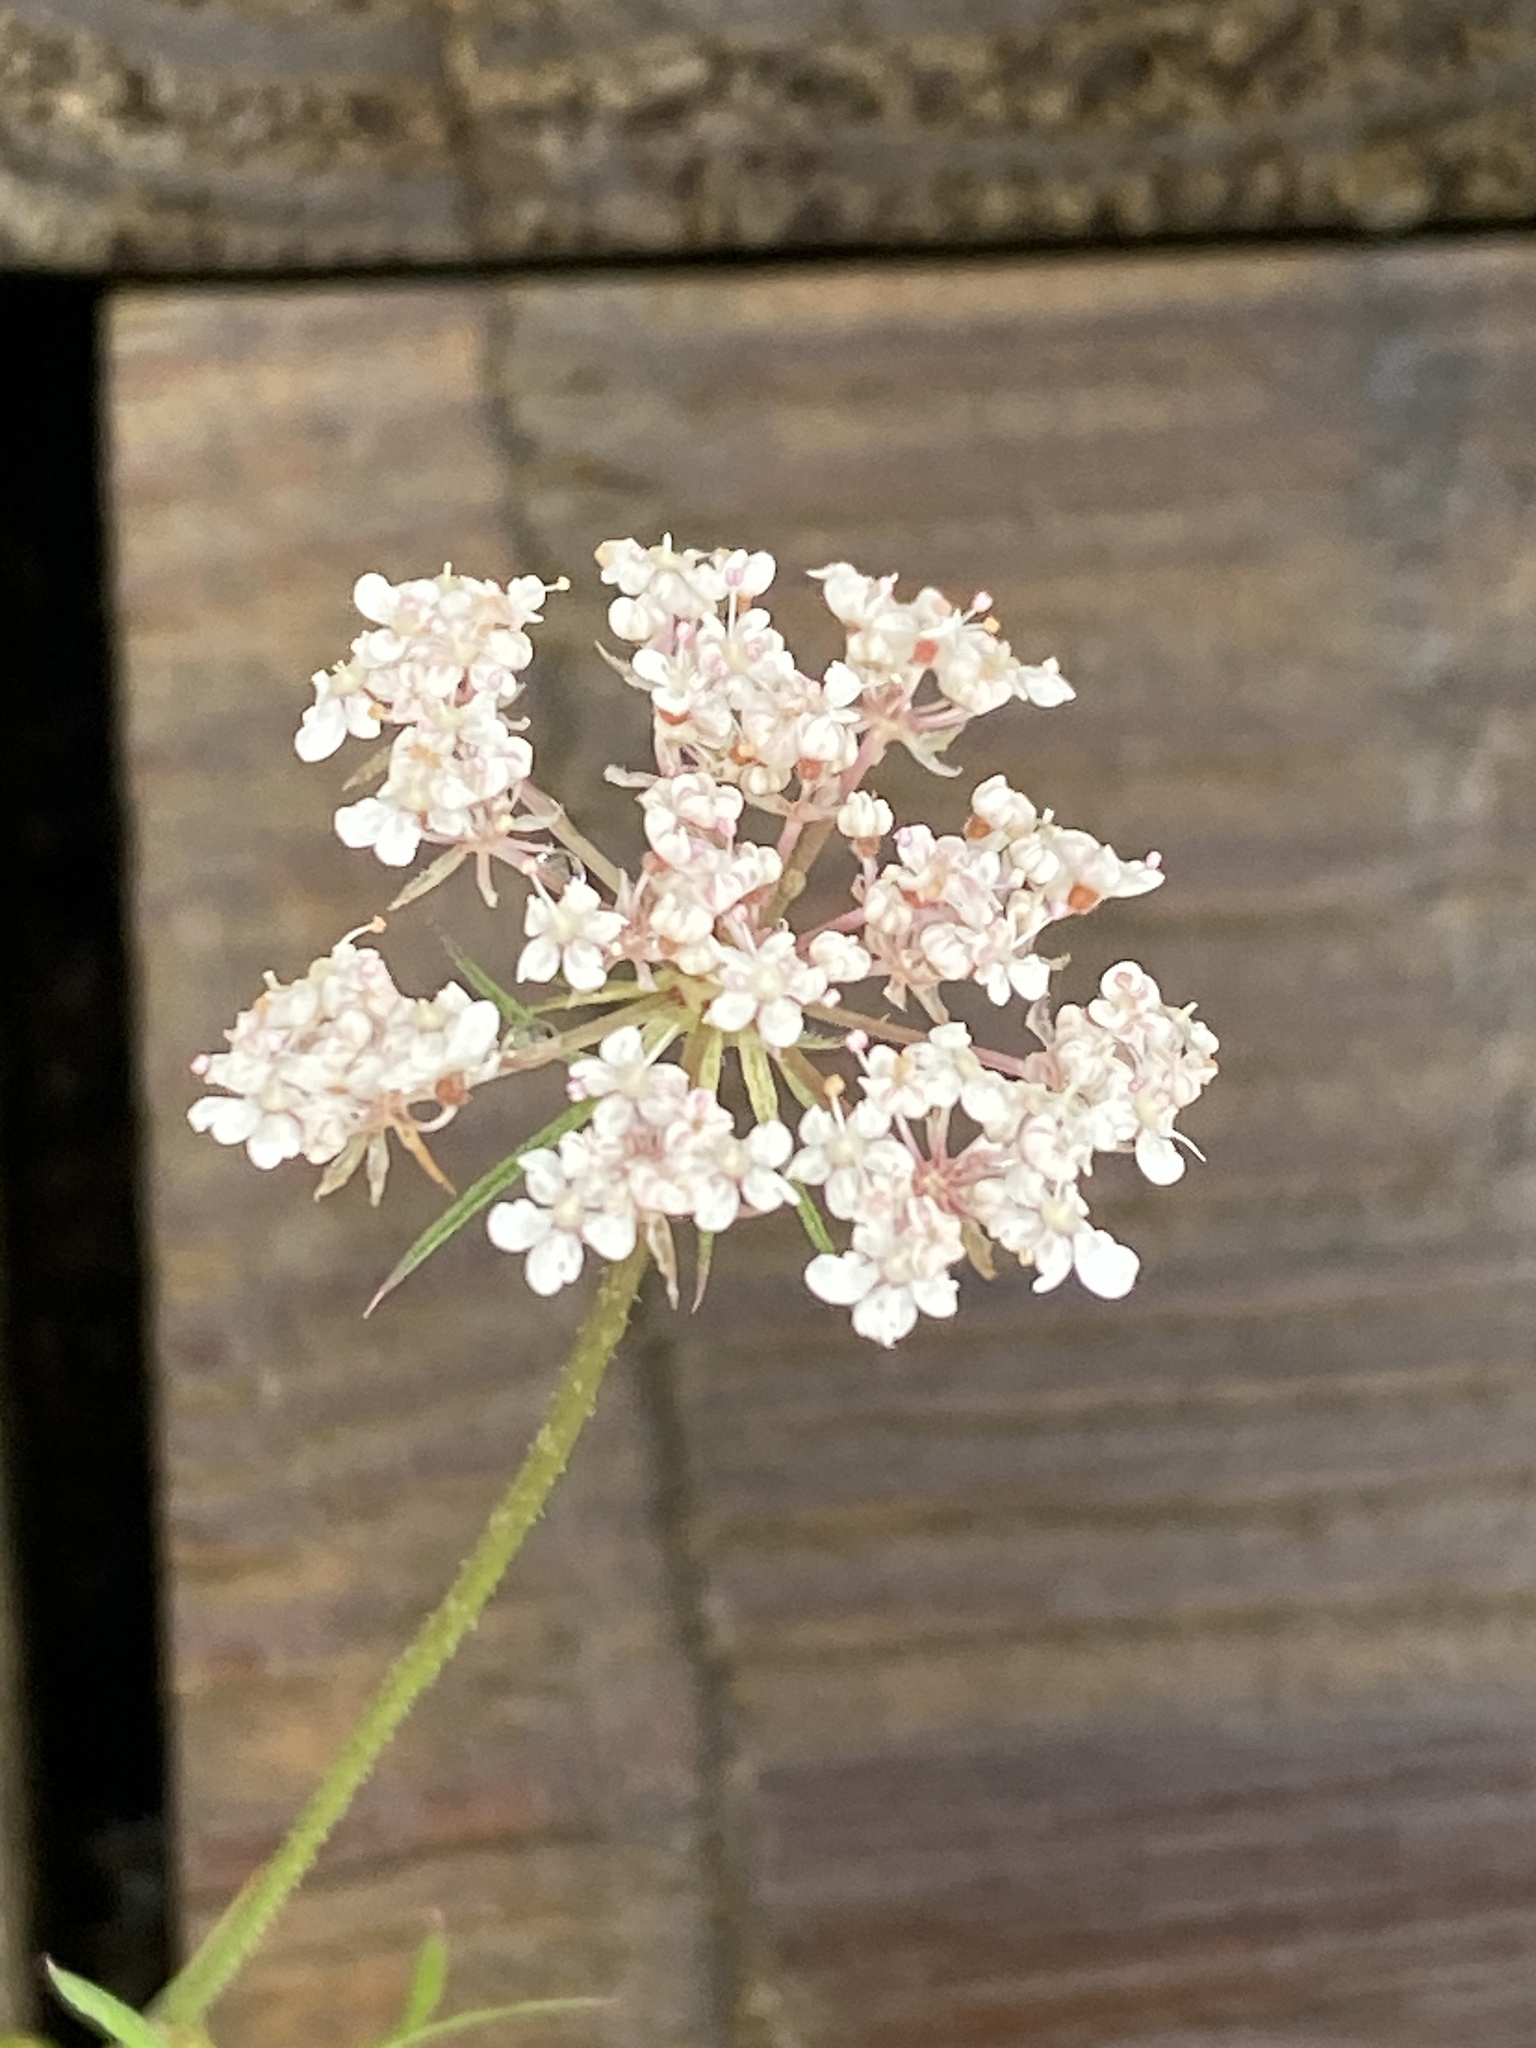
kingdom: Plantae
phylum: Tracheophyta
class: Magnoliopsida
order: Apiales
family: Apiaceae
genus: Daucus
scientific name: Daucus carota
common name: Wild carrot
